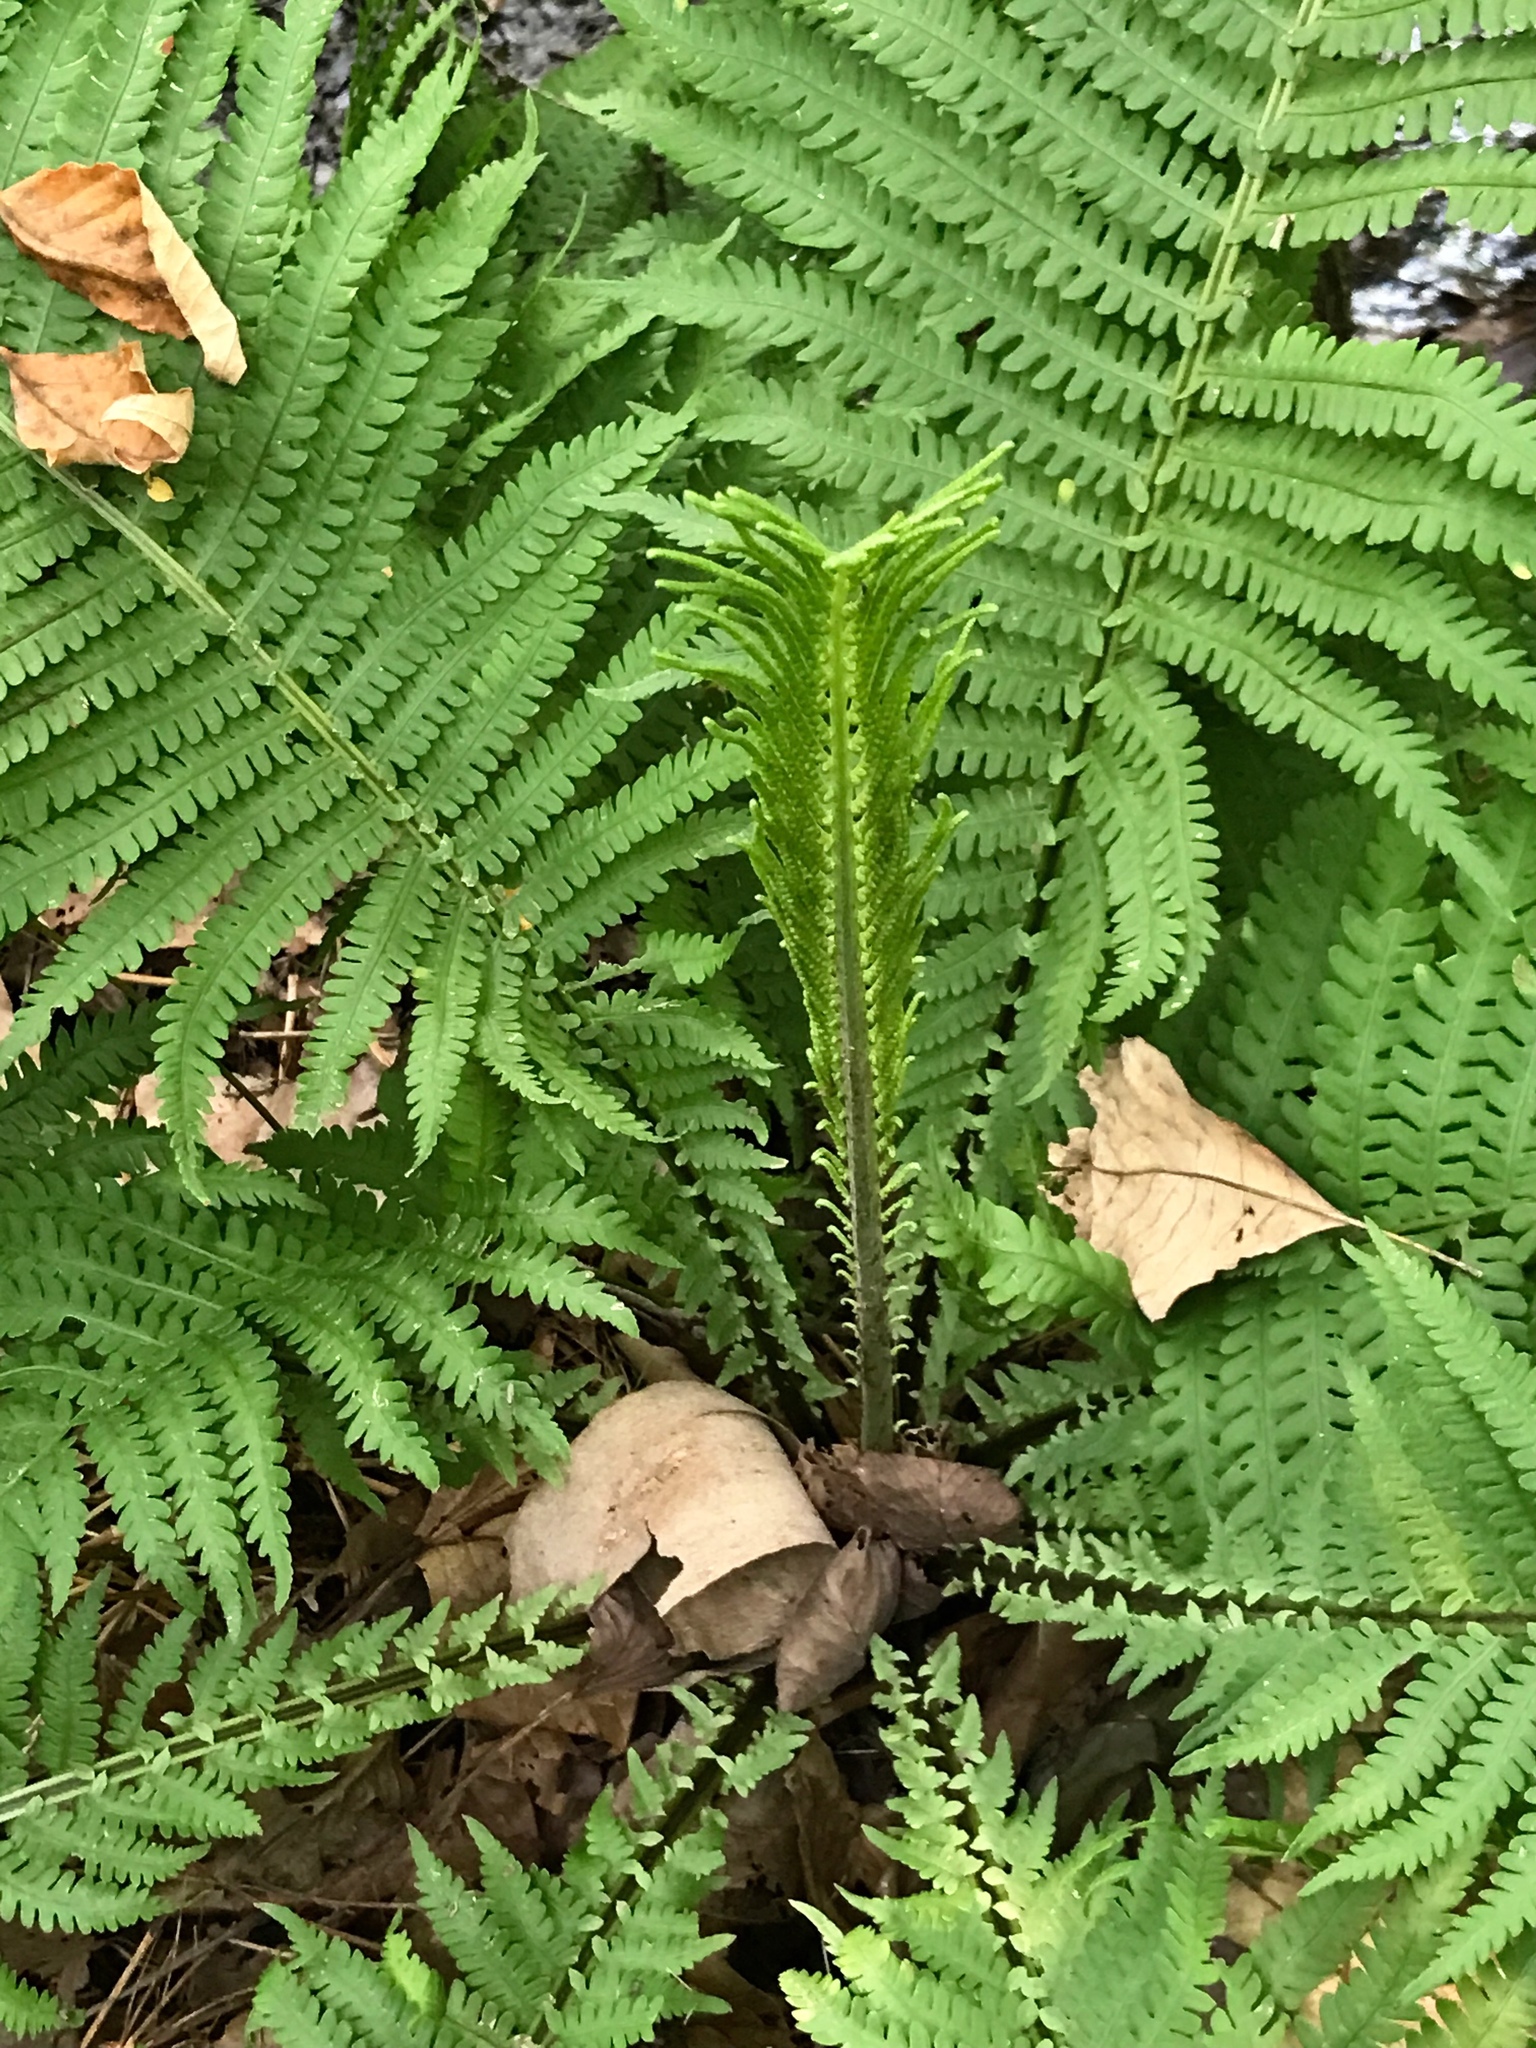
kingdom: Plantae
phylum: Tracheophyta
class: Polypodiopsida
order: Polypodiales
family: Onocleaceae
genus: Matteuccia
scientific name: Matteuccia struthiopteris
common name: Ostrich fern
